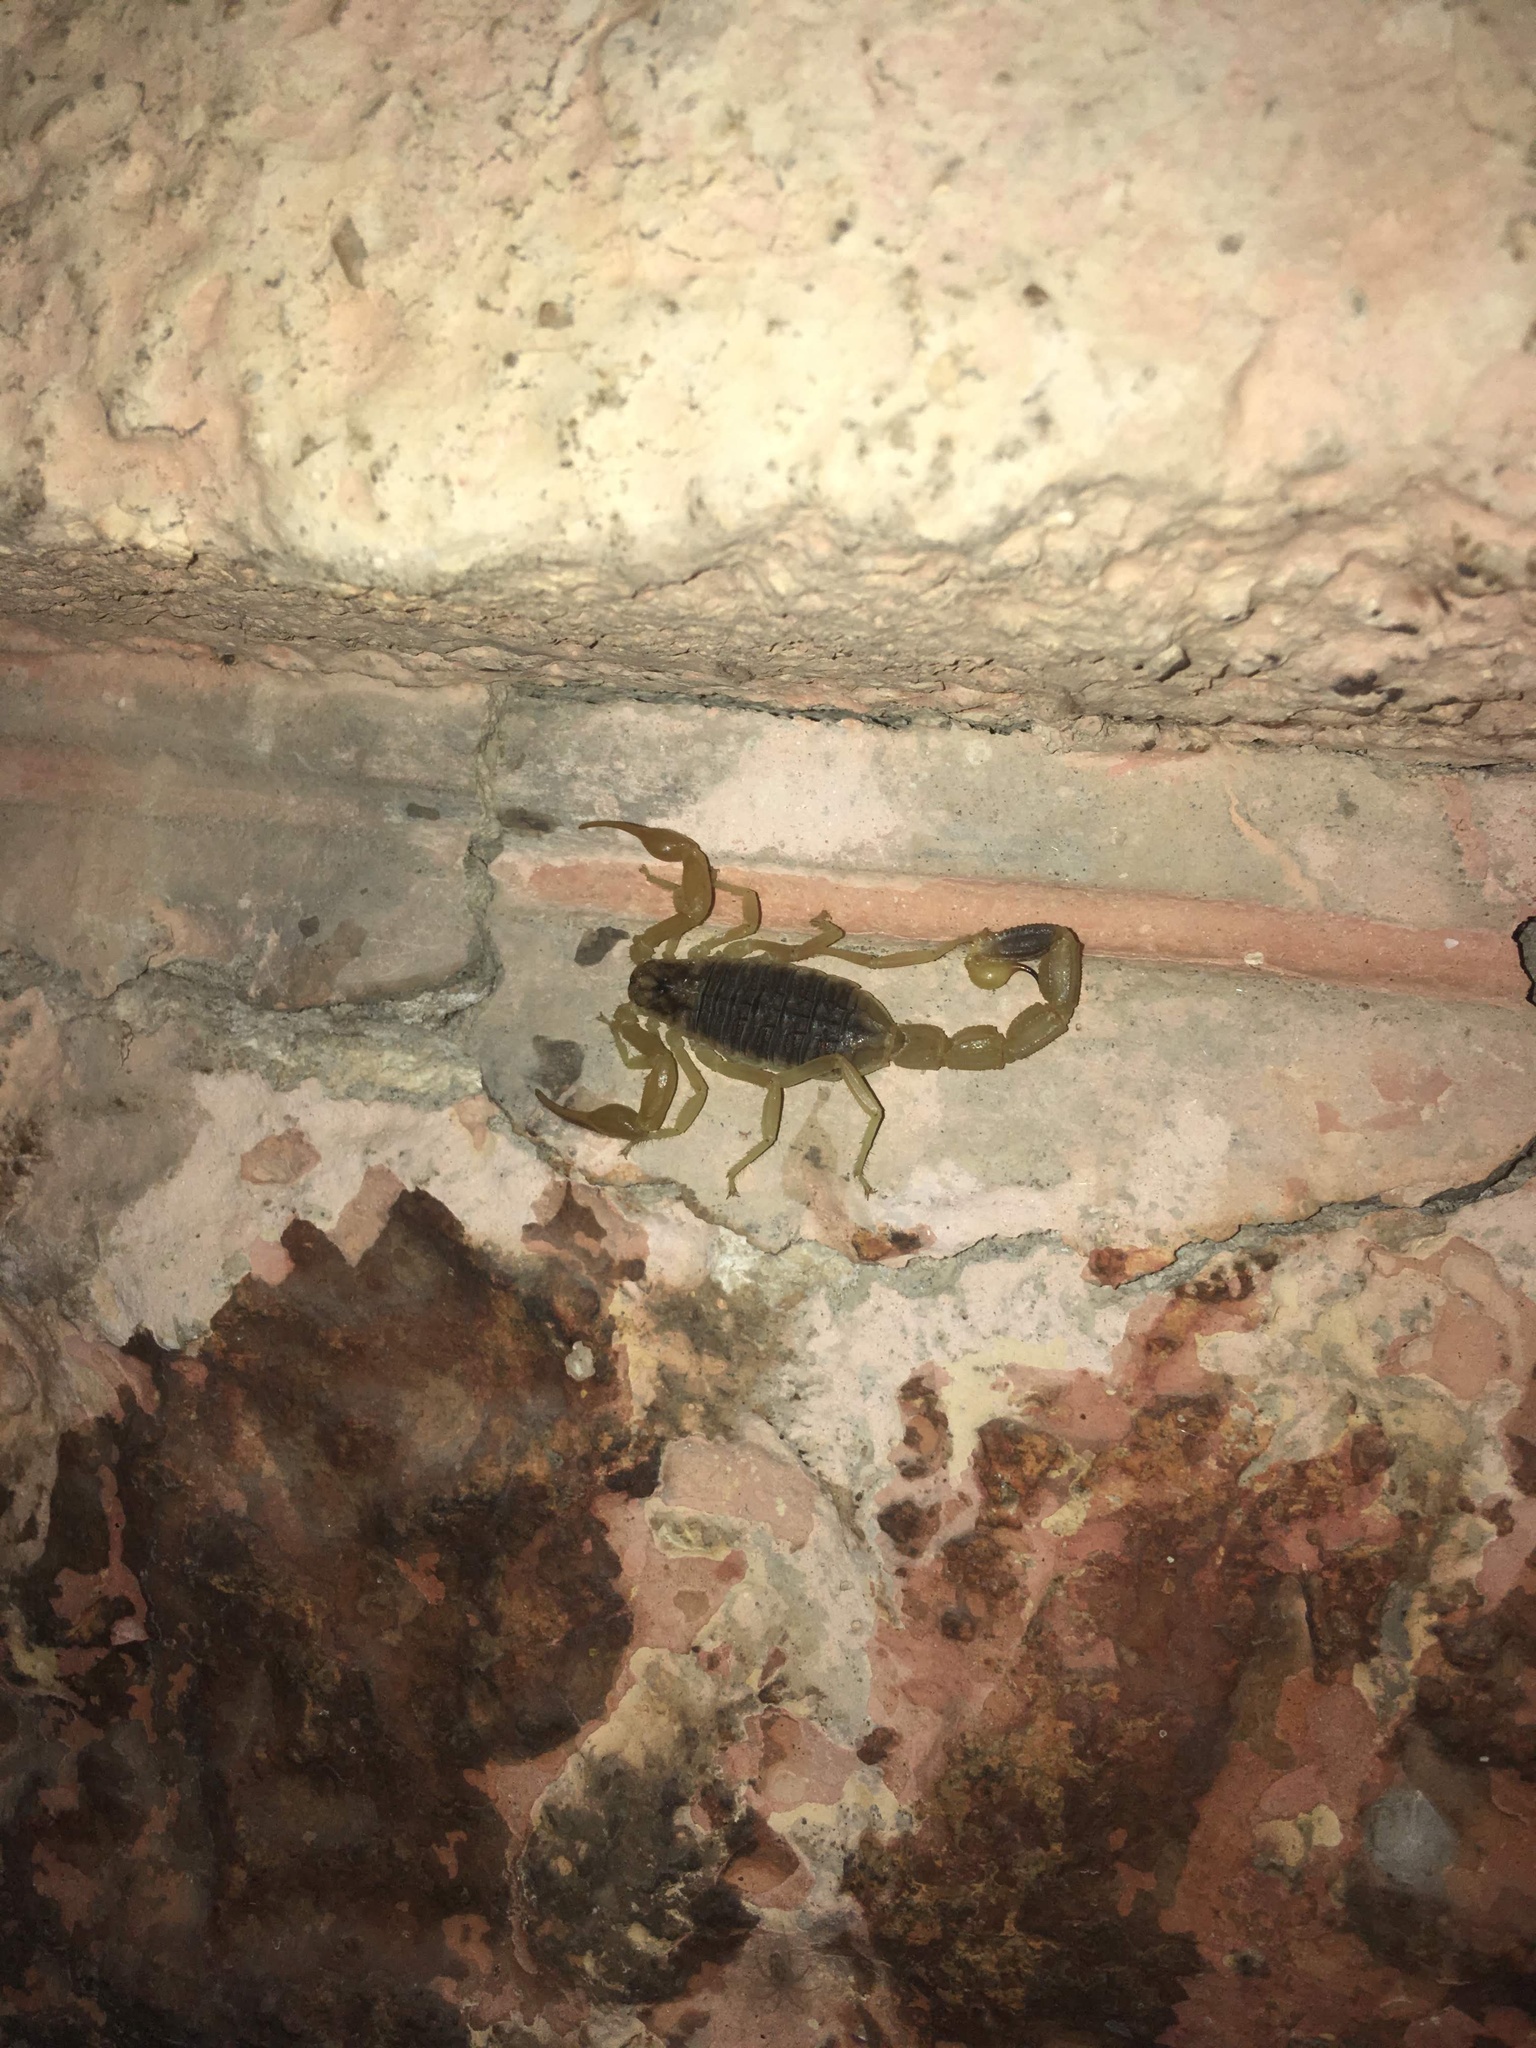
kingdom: Animalia
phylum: Arthropoda
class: Arachnida
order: Scorpiones
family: Buthidae
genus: Olivierus
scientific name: Olivierus caucasicus
